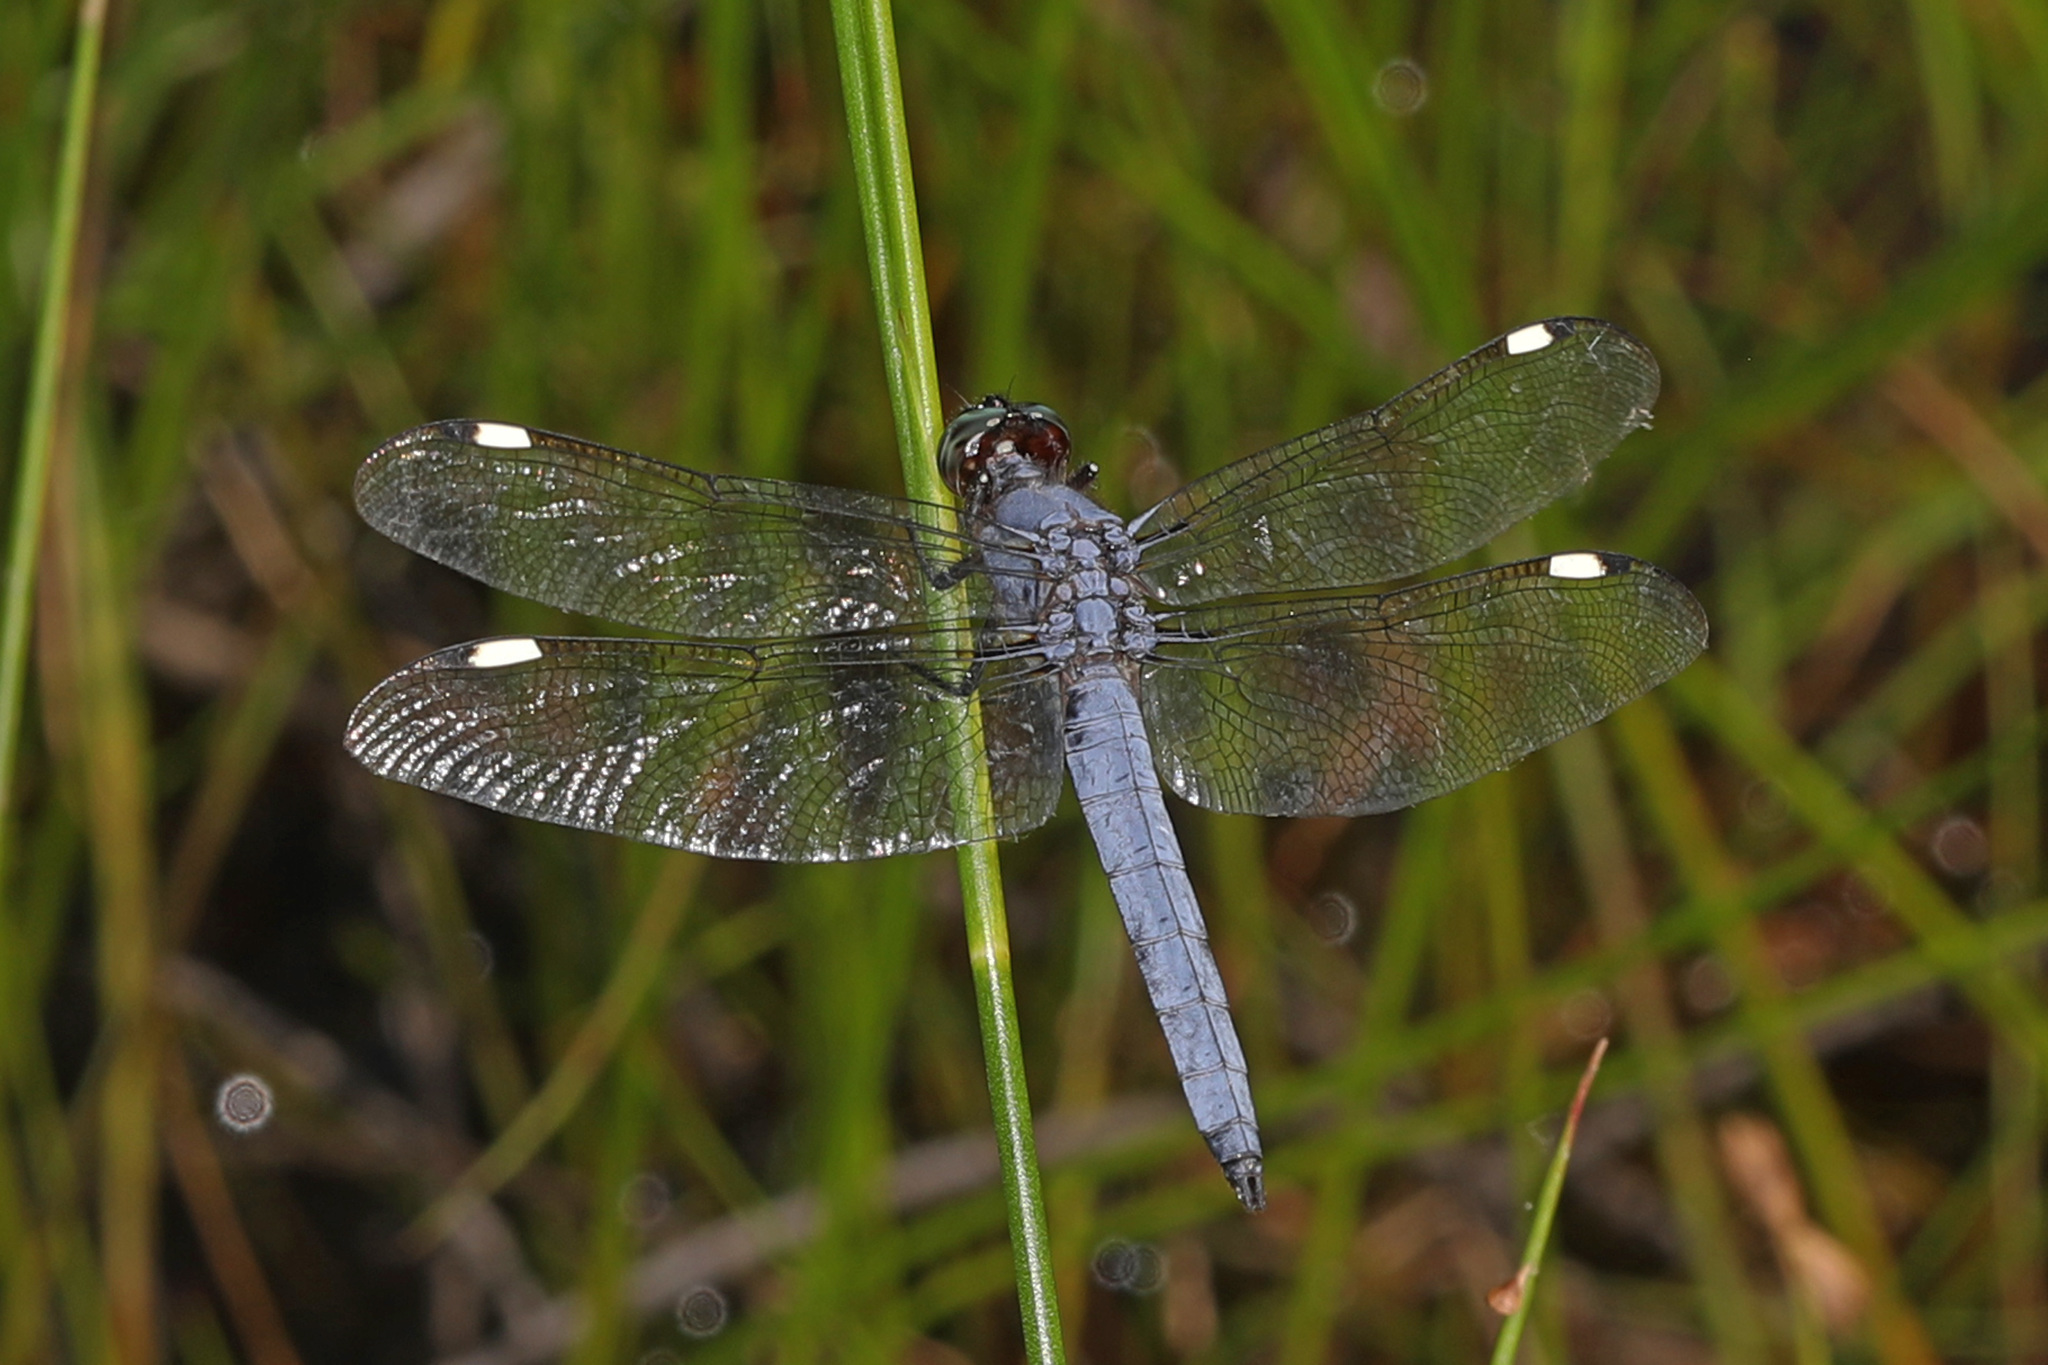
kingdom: Animalia
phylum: Arthropoda
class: Insecta
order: Odonata
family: Libellulidae
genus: Libellula
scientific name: Libellula cyanea
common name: Spangled skimmer
